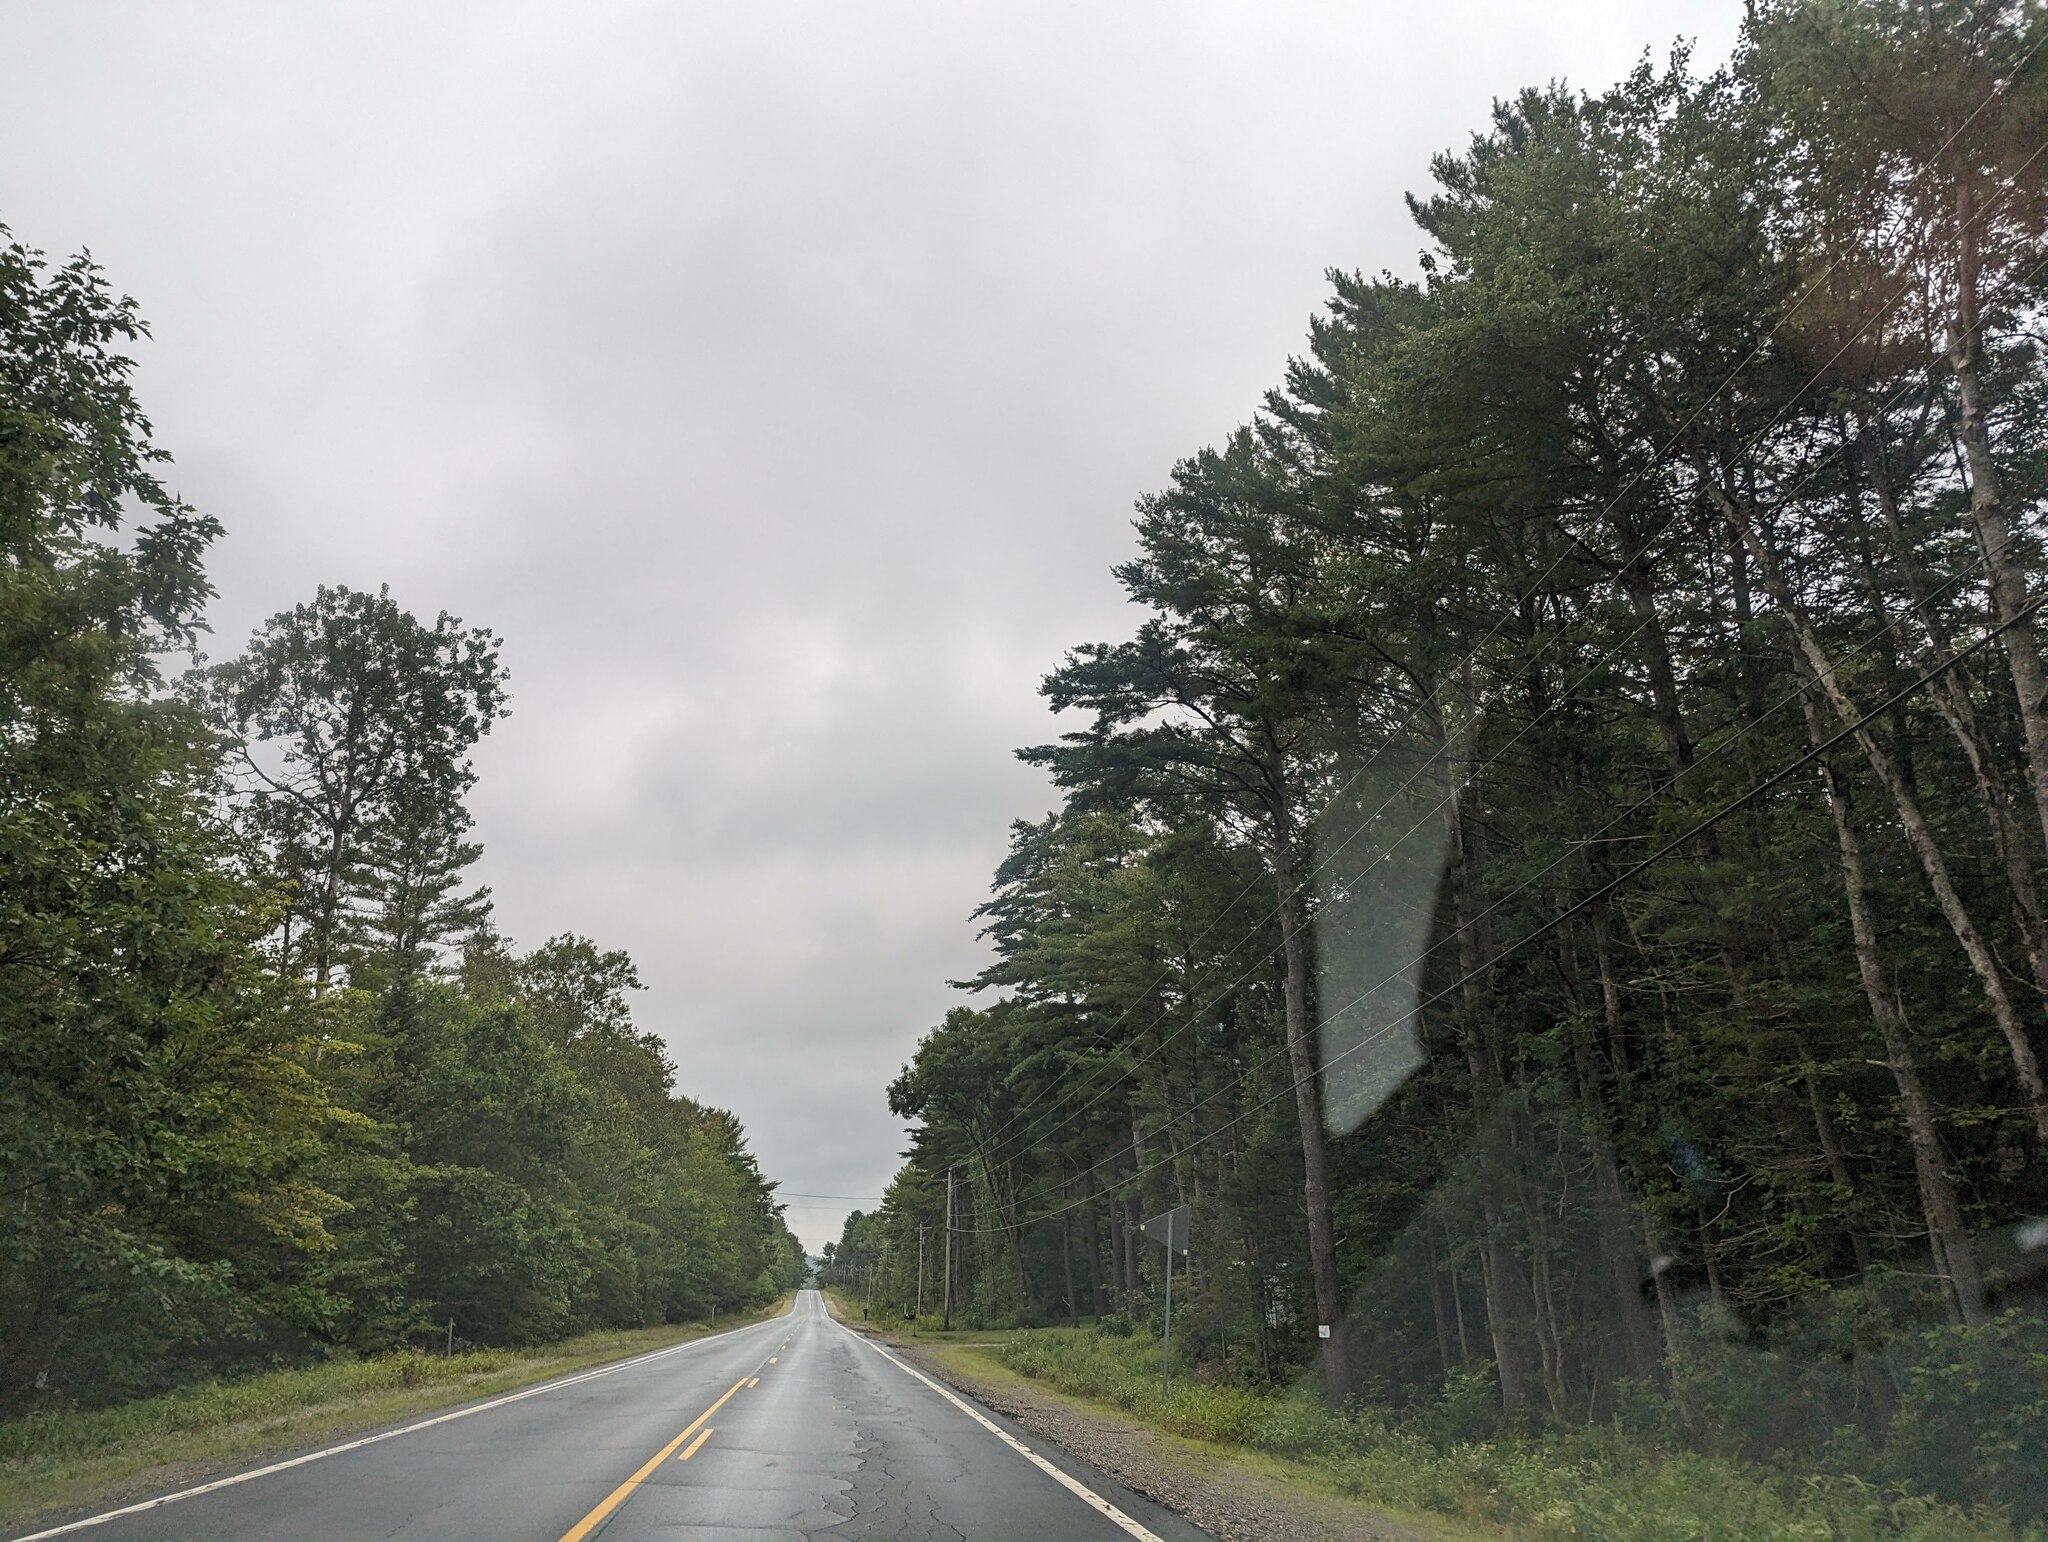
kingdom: Plantae
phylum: Tracheophyta
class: Pinopsida
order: Pinales
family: Pinaceae
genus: Pinus
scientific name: Pinus strobus
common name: Weymouth pine
